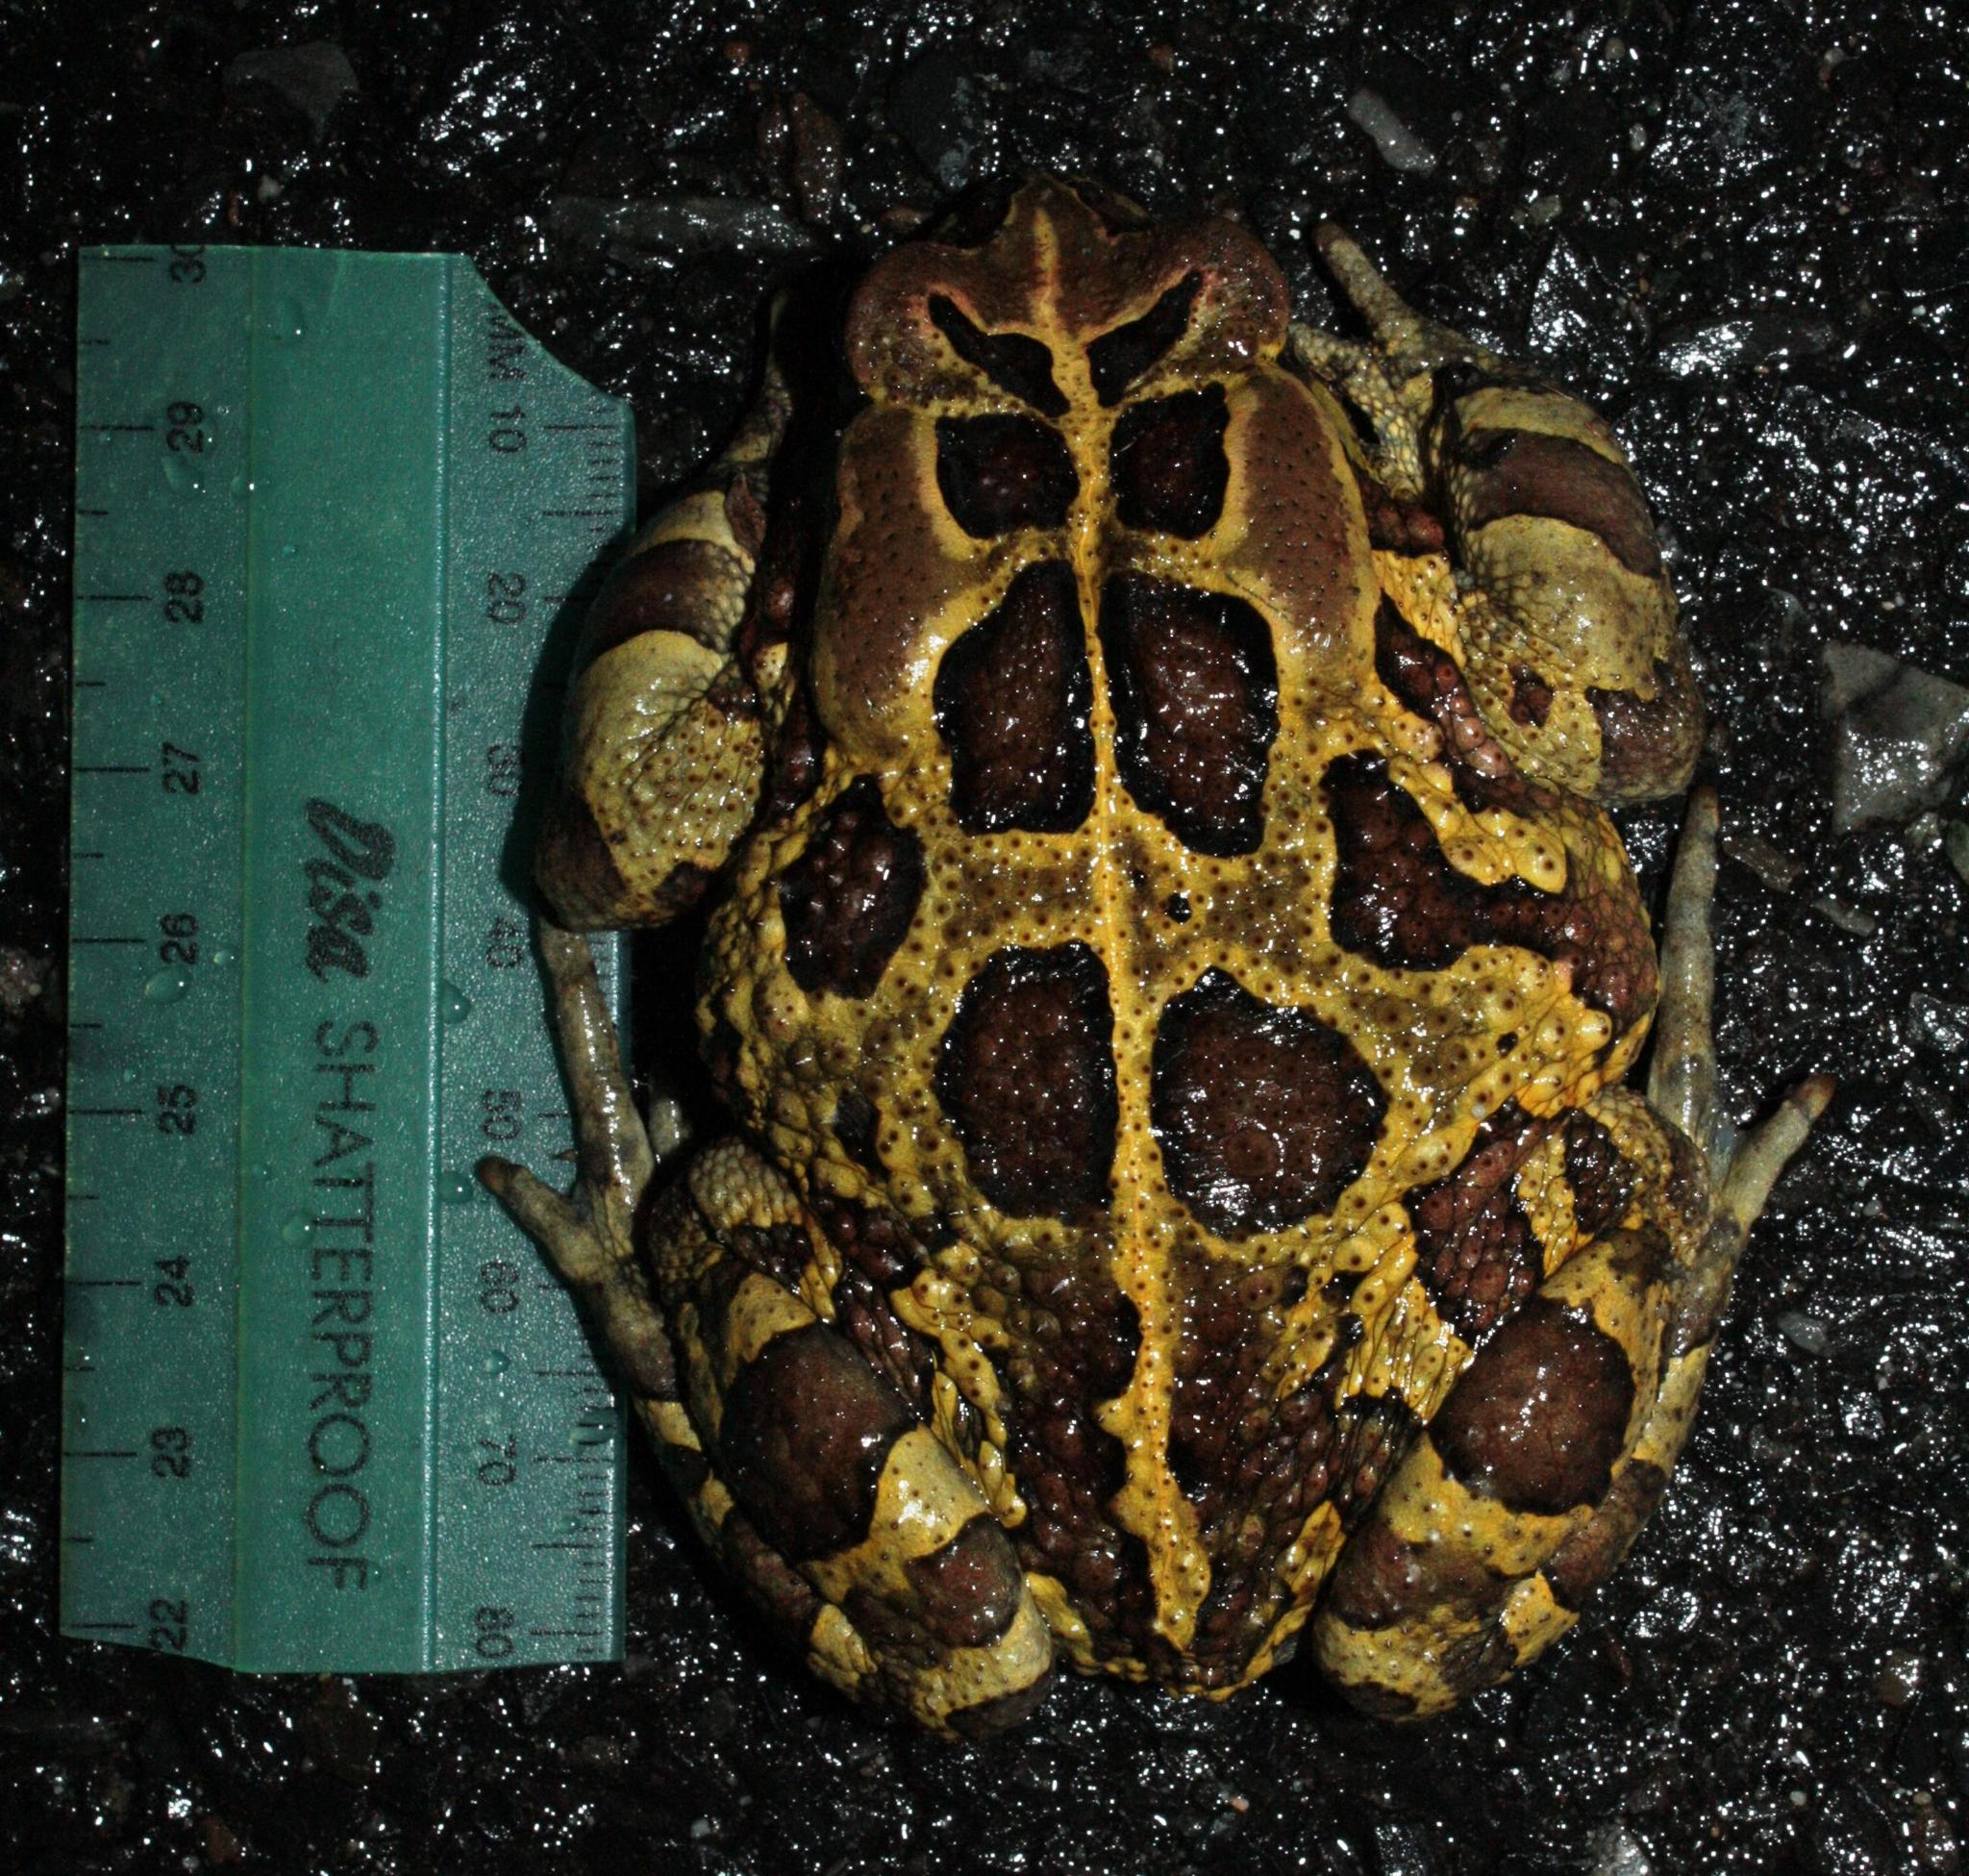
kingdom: Animalia
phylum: Chordata
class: Amphibia
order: Anura
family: Bufonidae
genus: Sclerophrys
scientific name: Sclerophrys pantherina
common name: Panther toad
